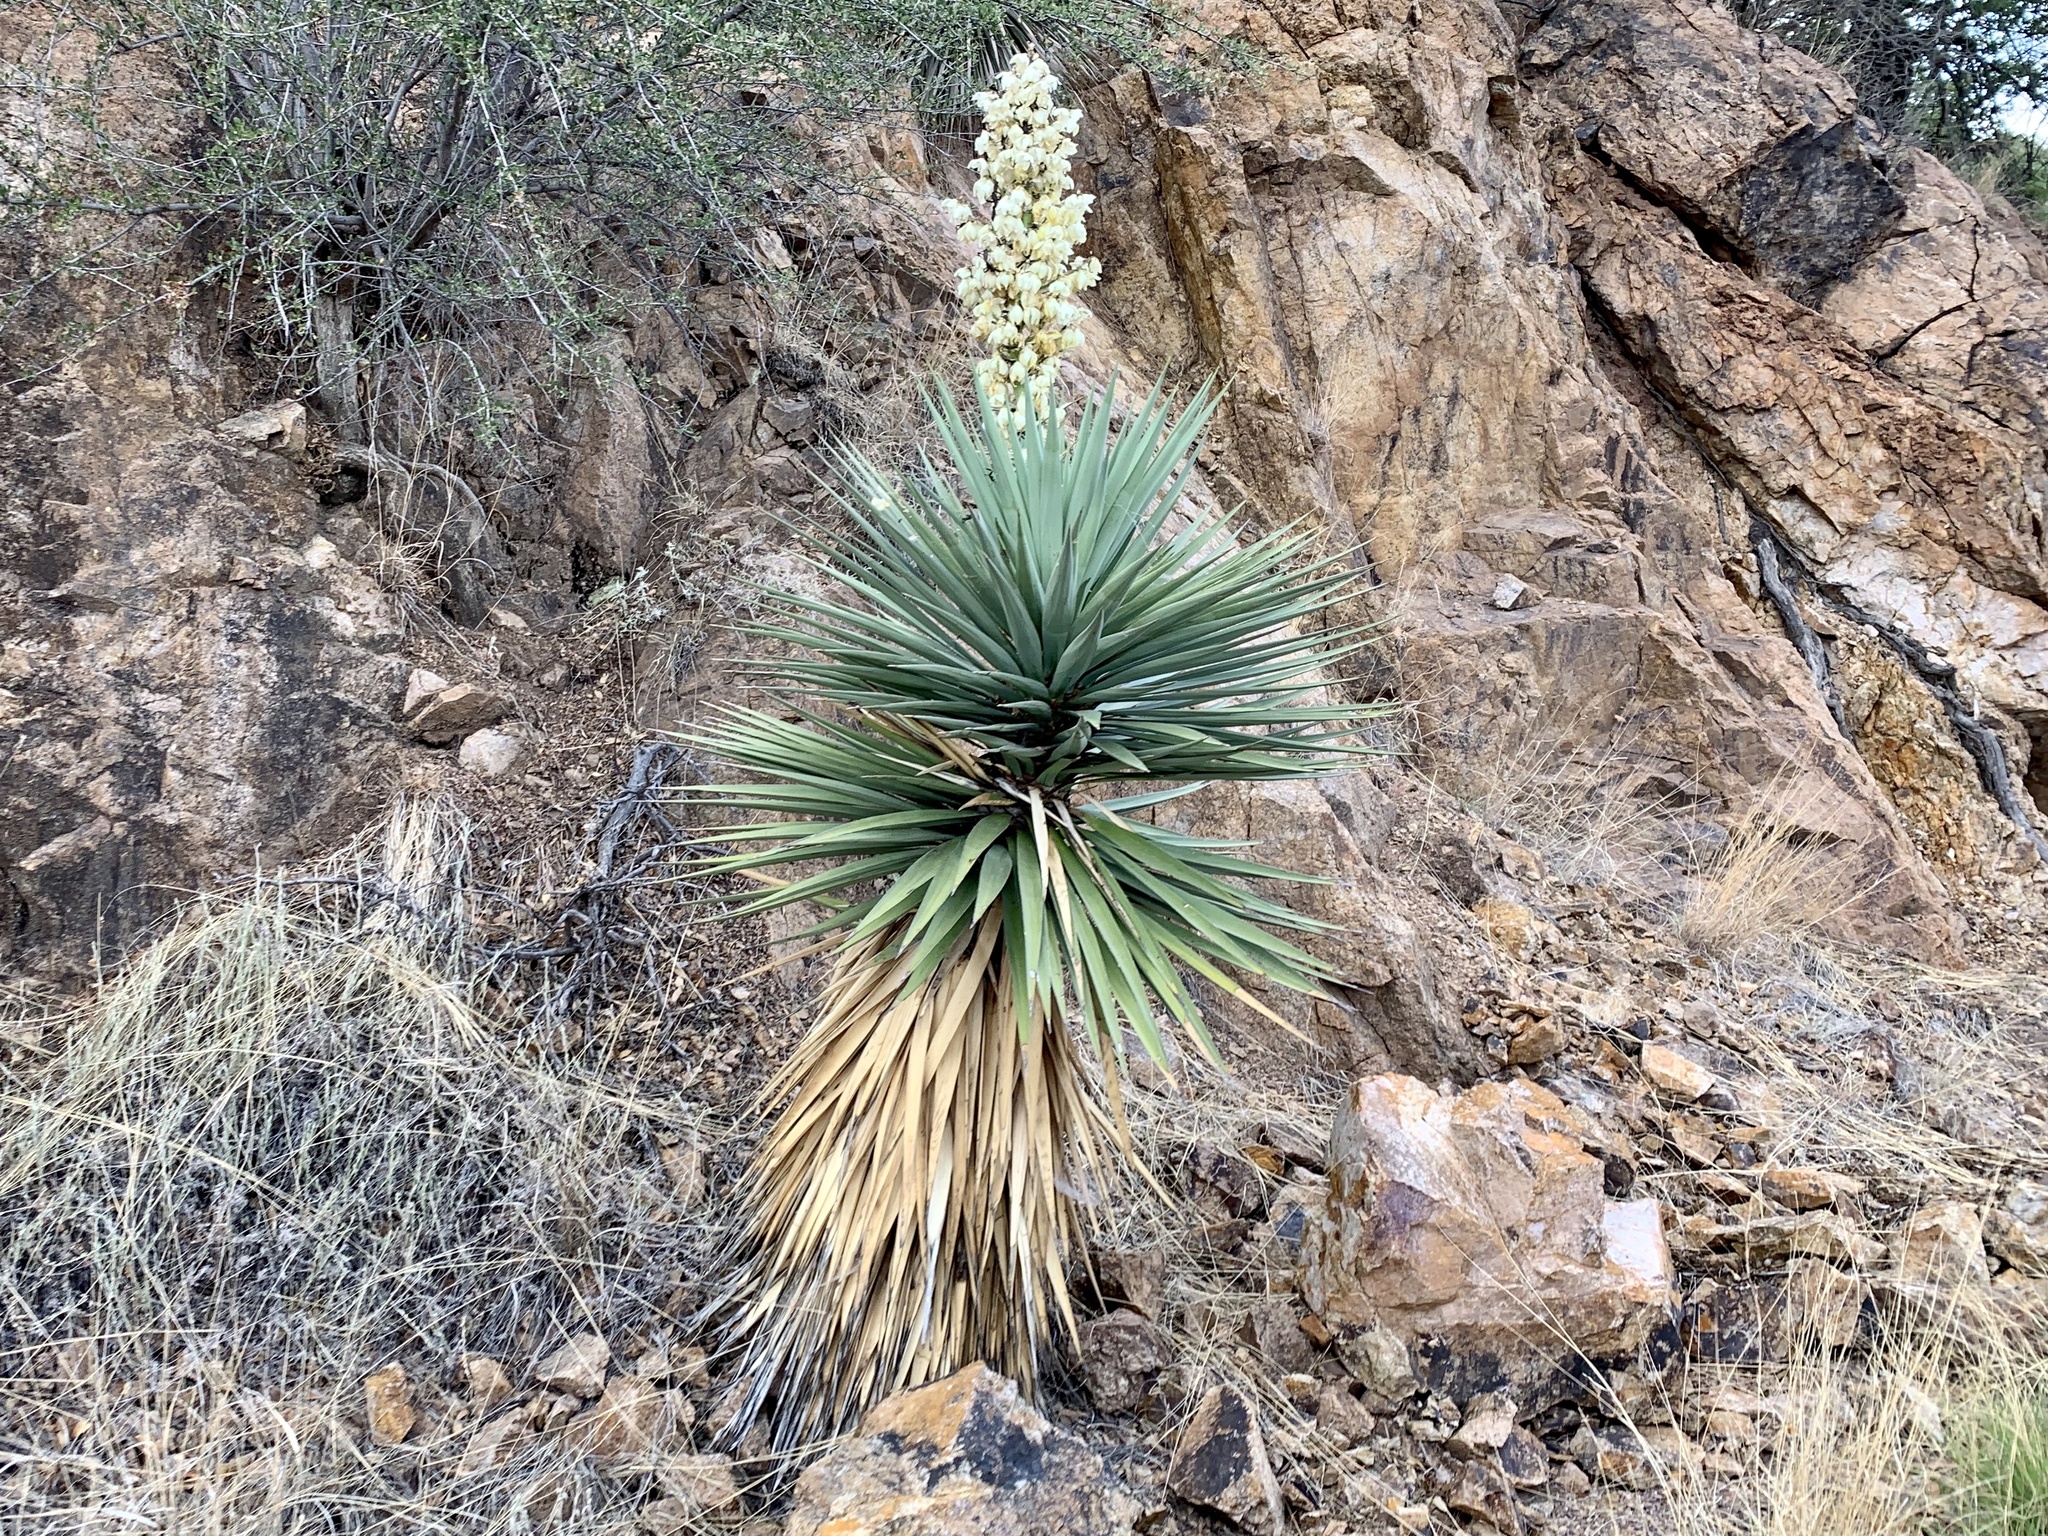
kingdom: Plantae
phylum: Tracheophyta
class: Liliopsida
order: Asparagales
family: Asparagaceae
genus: Yucca
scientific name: Yucca madrensis
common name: Hoary yucca
